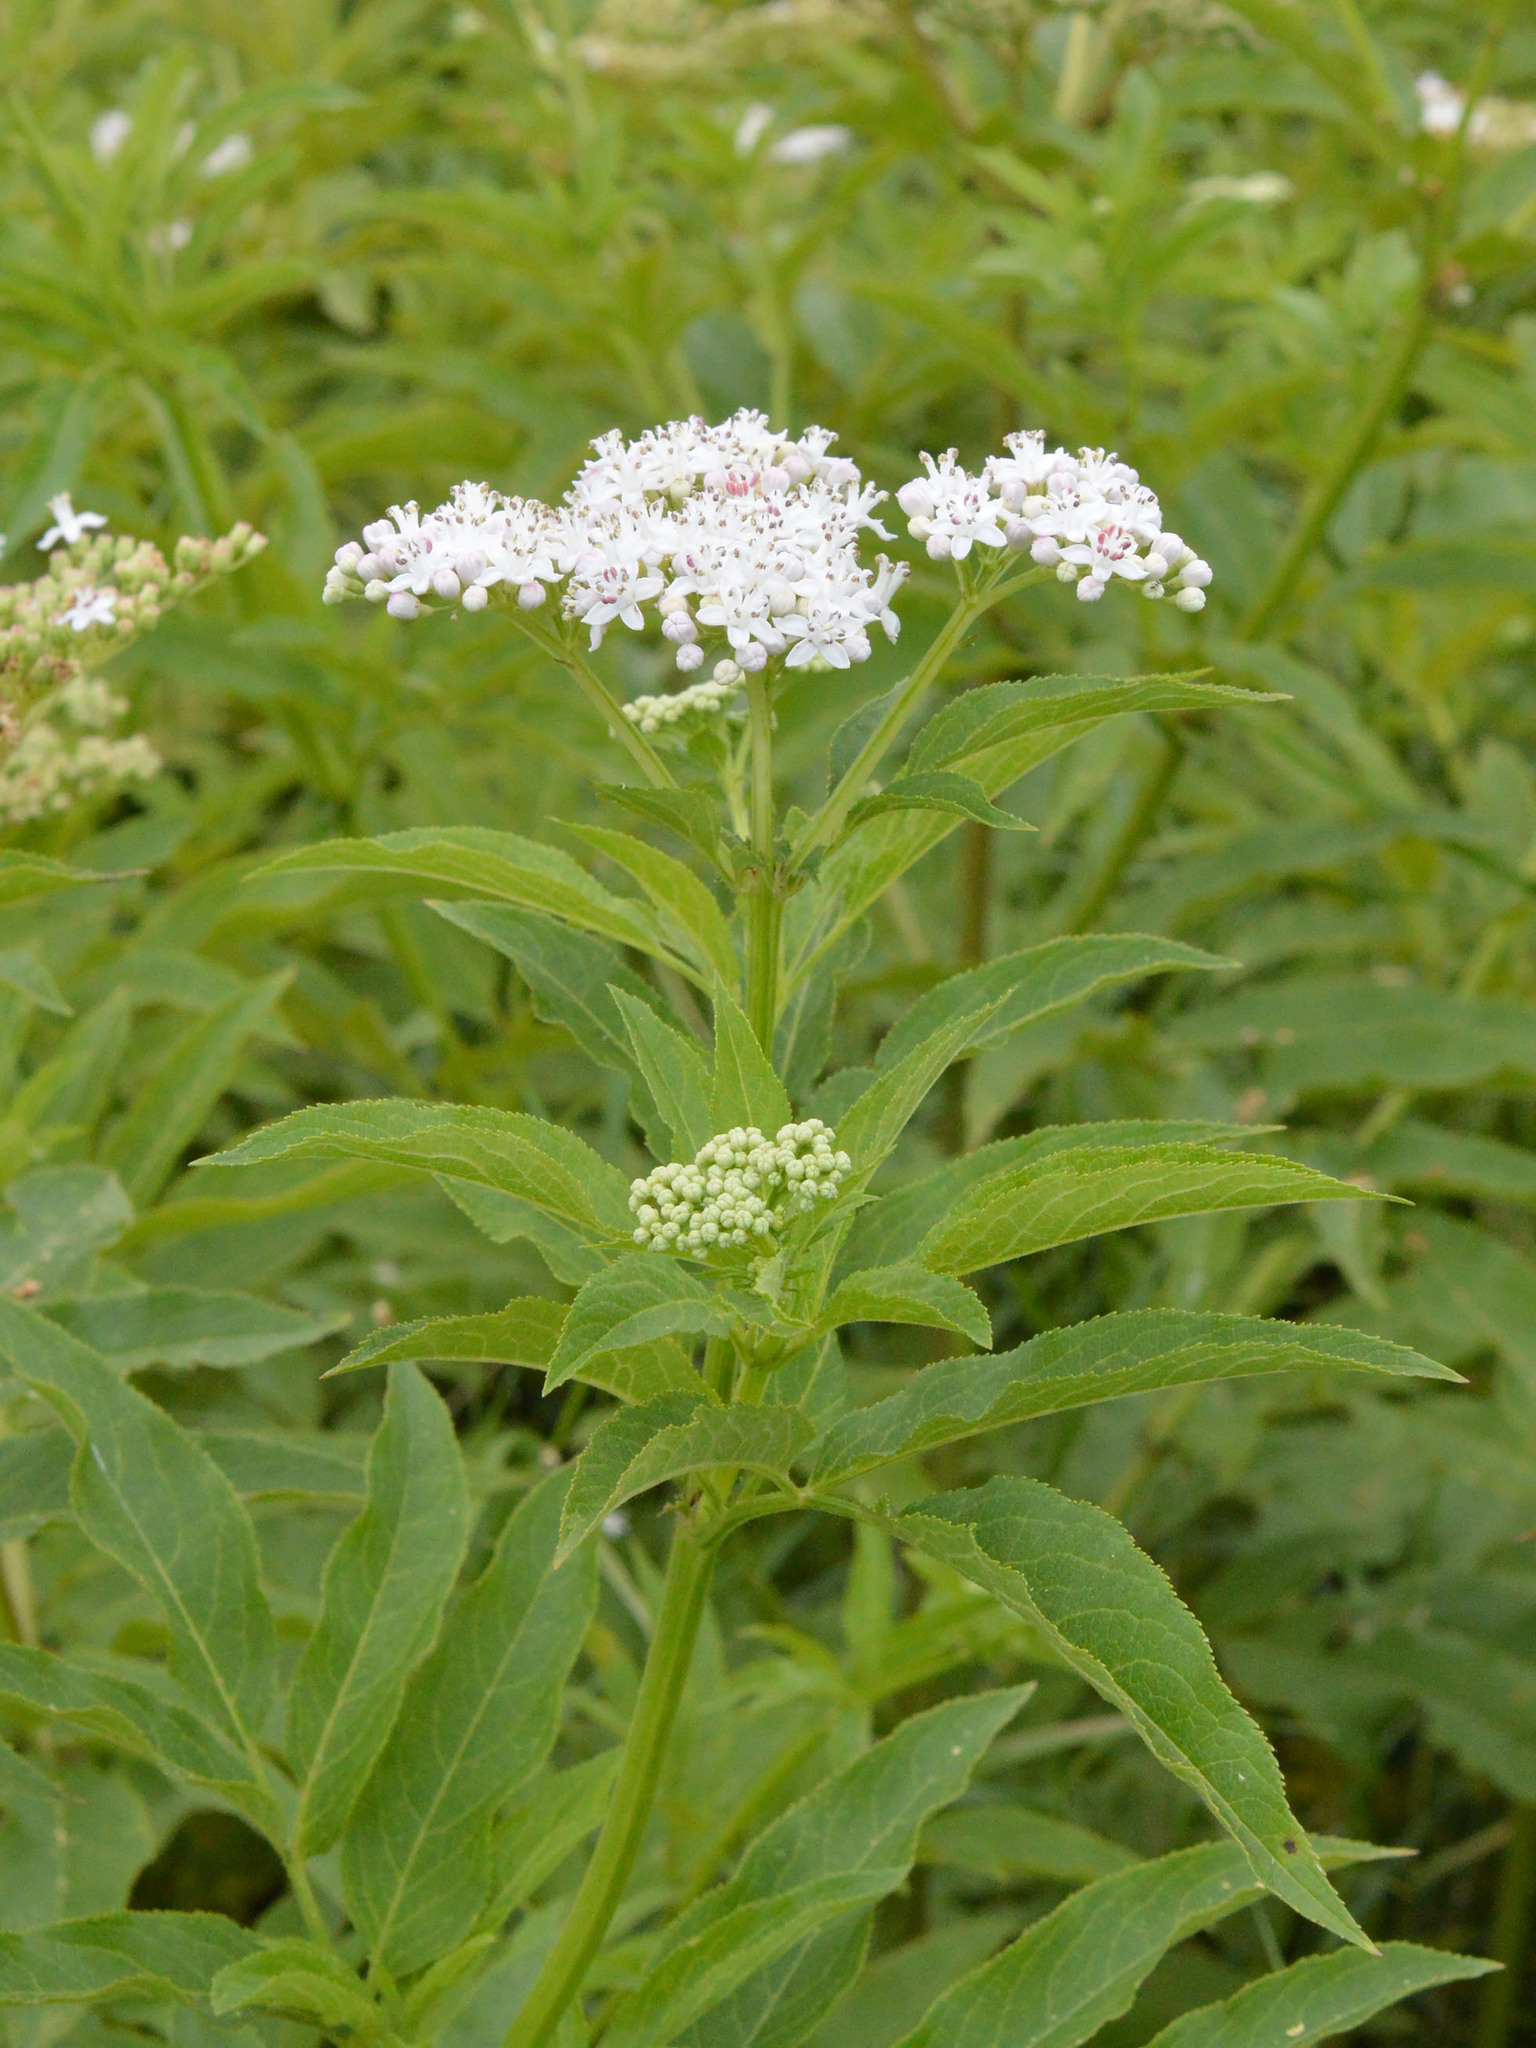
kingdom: Plantae
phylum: Tracheophyta
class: Magnoliopsida
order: Dipsacales
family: Viburnaceae
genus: Sambucus
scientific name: Sambucus ebulus
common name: Dwarf elder
